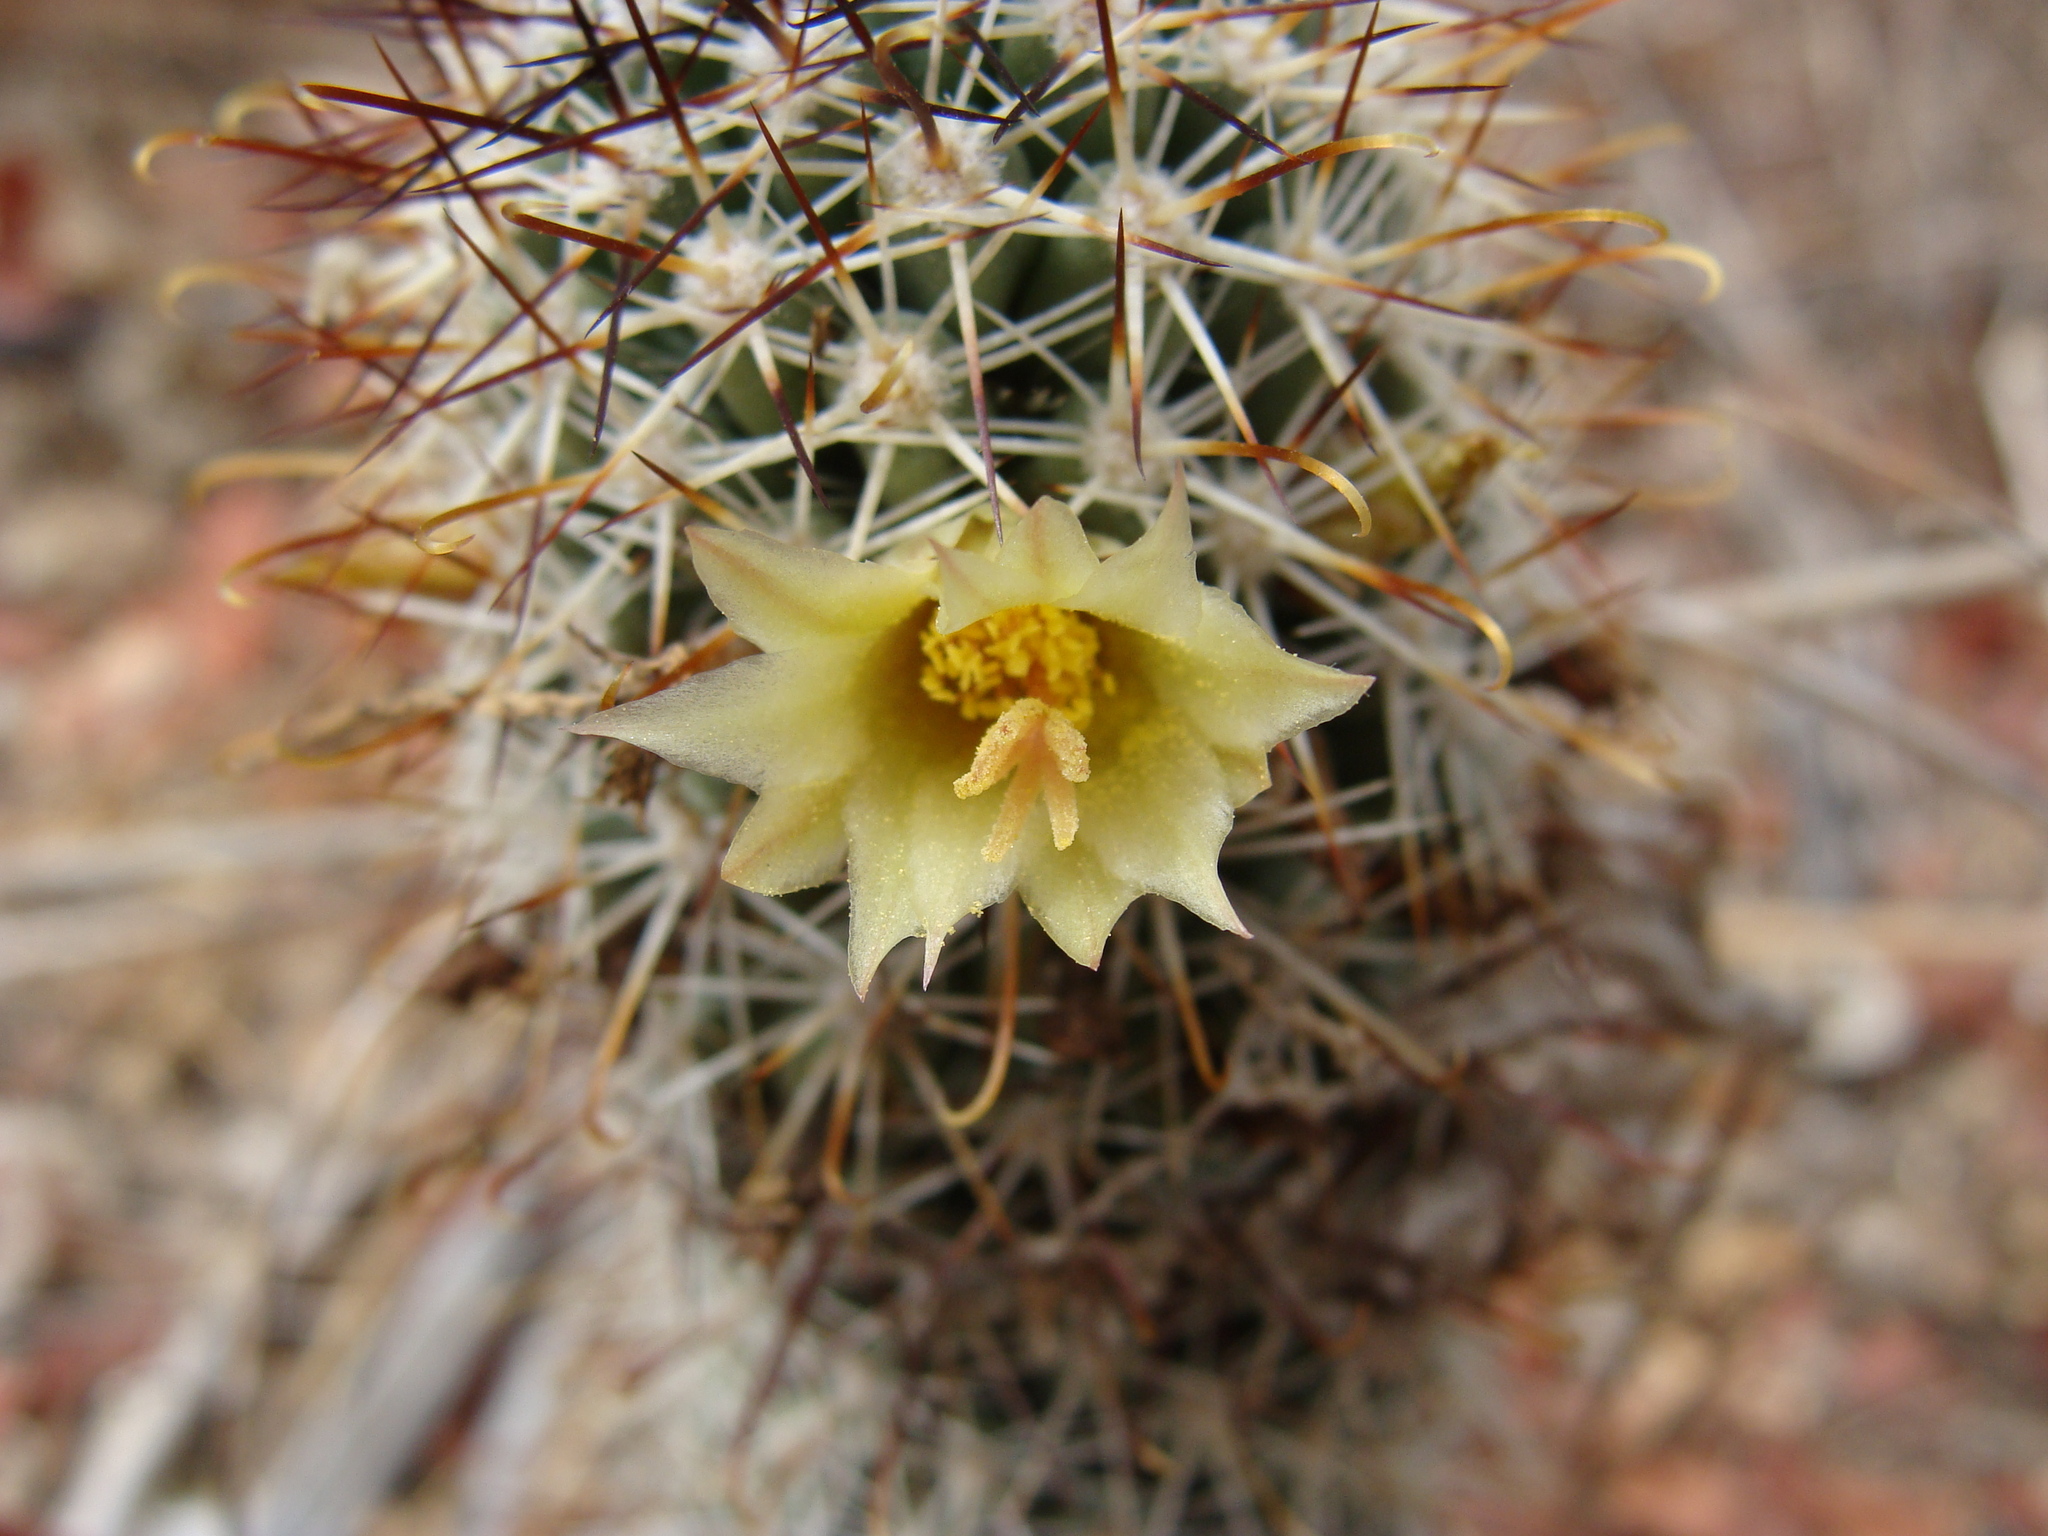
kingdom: Plantae
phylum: Tracheophyta
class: Magnoliopsida
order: Caryophyllales
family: Cactaceae
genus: Cochemiea
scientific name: Cochemiea armillata
